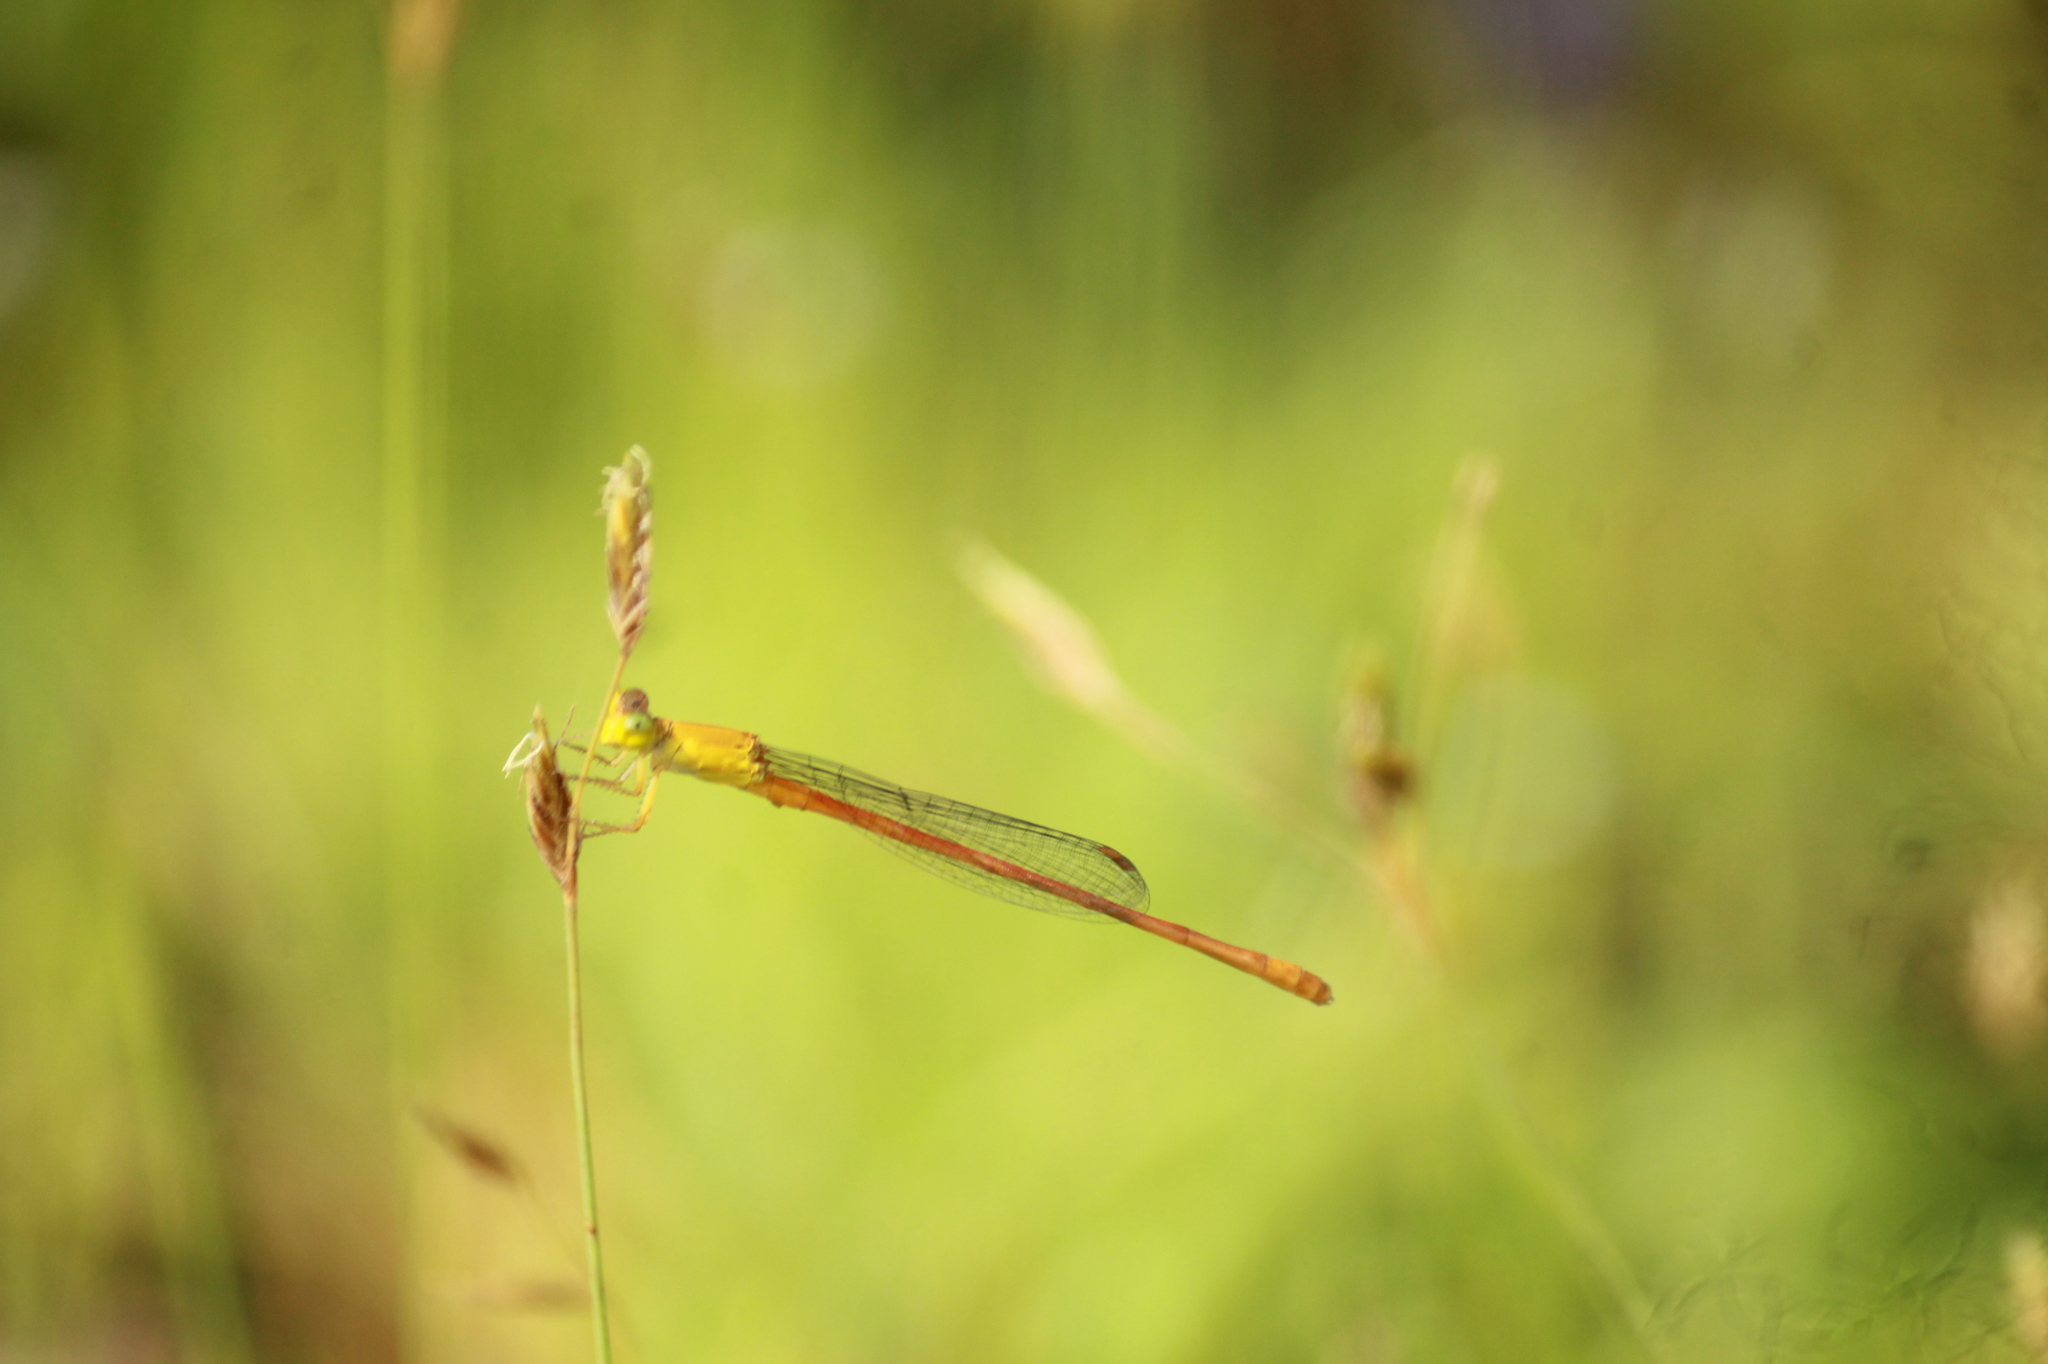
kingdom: Animalia
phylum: Arthropoda
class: Insecta
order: Odonata
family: Coenagrionidae
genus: Ceriagrion
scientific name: Ceriagrion rubiae
